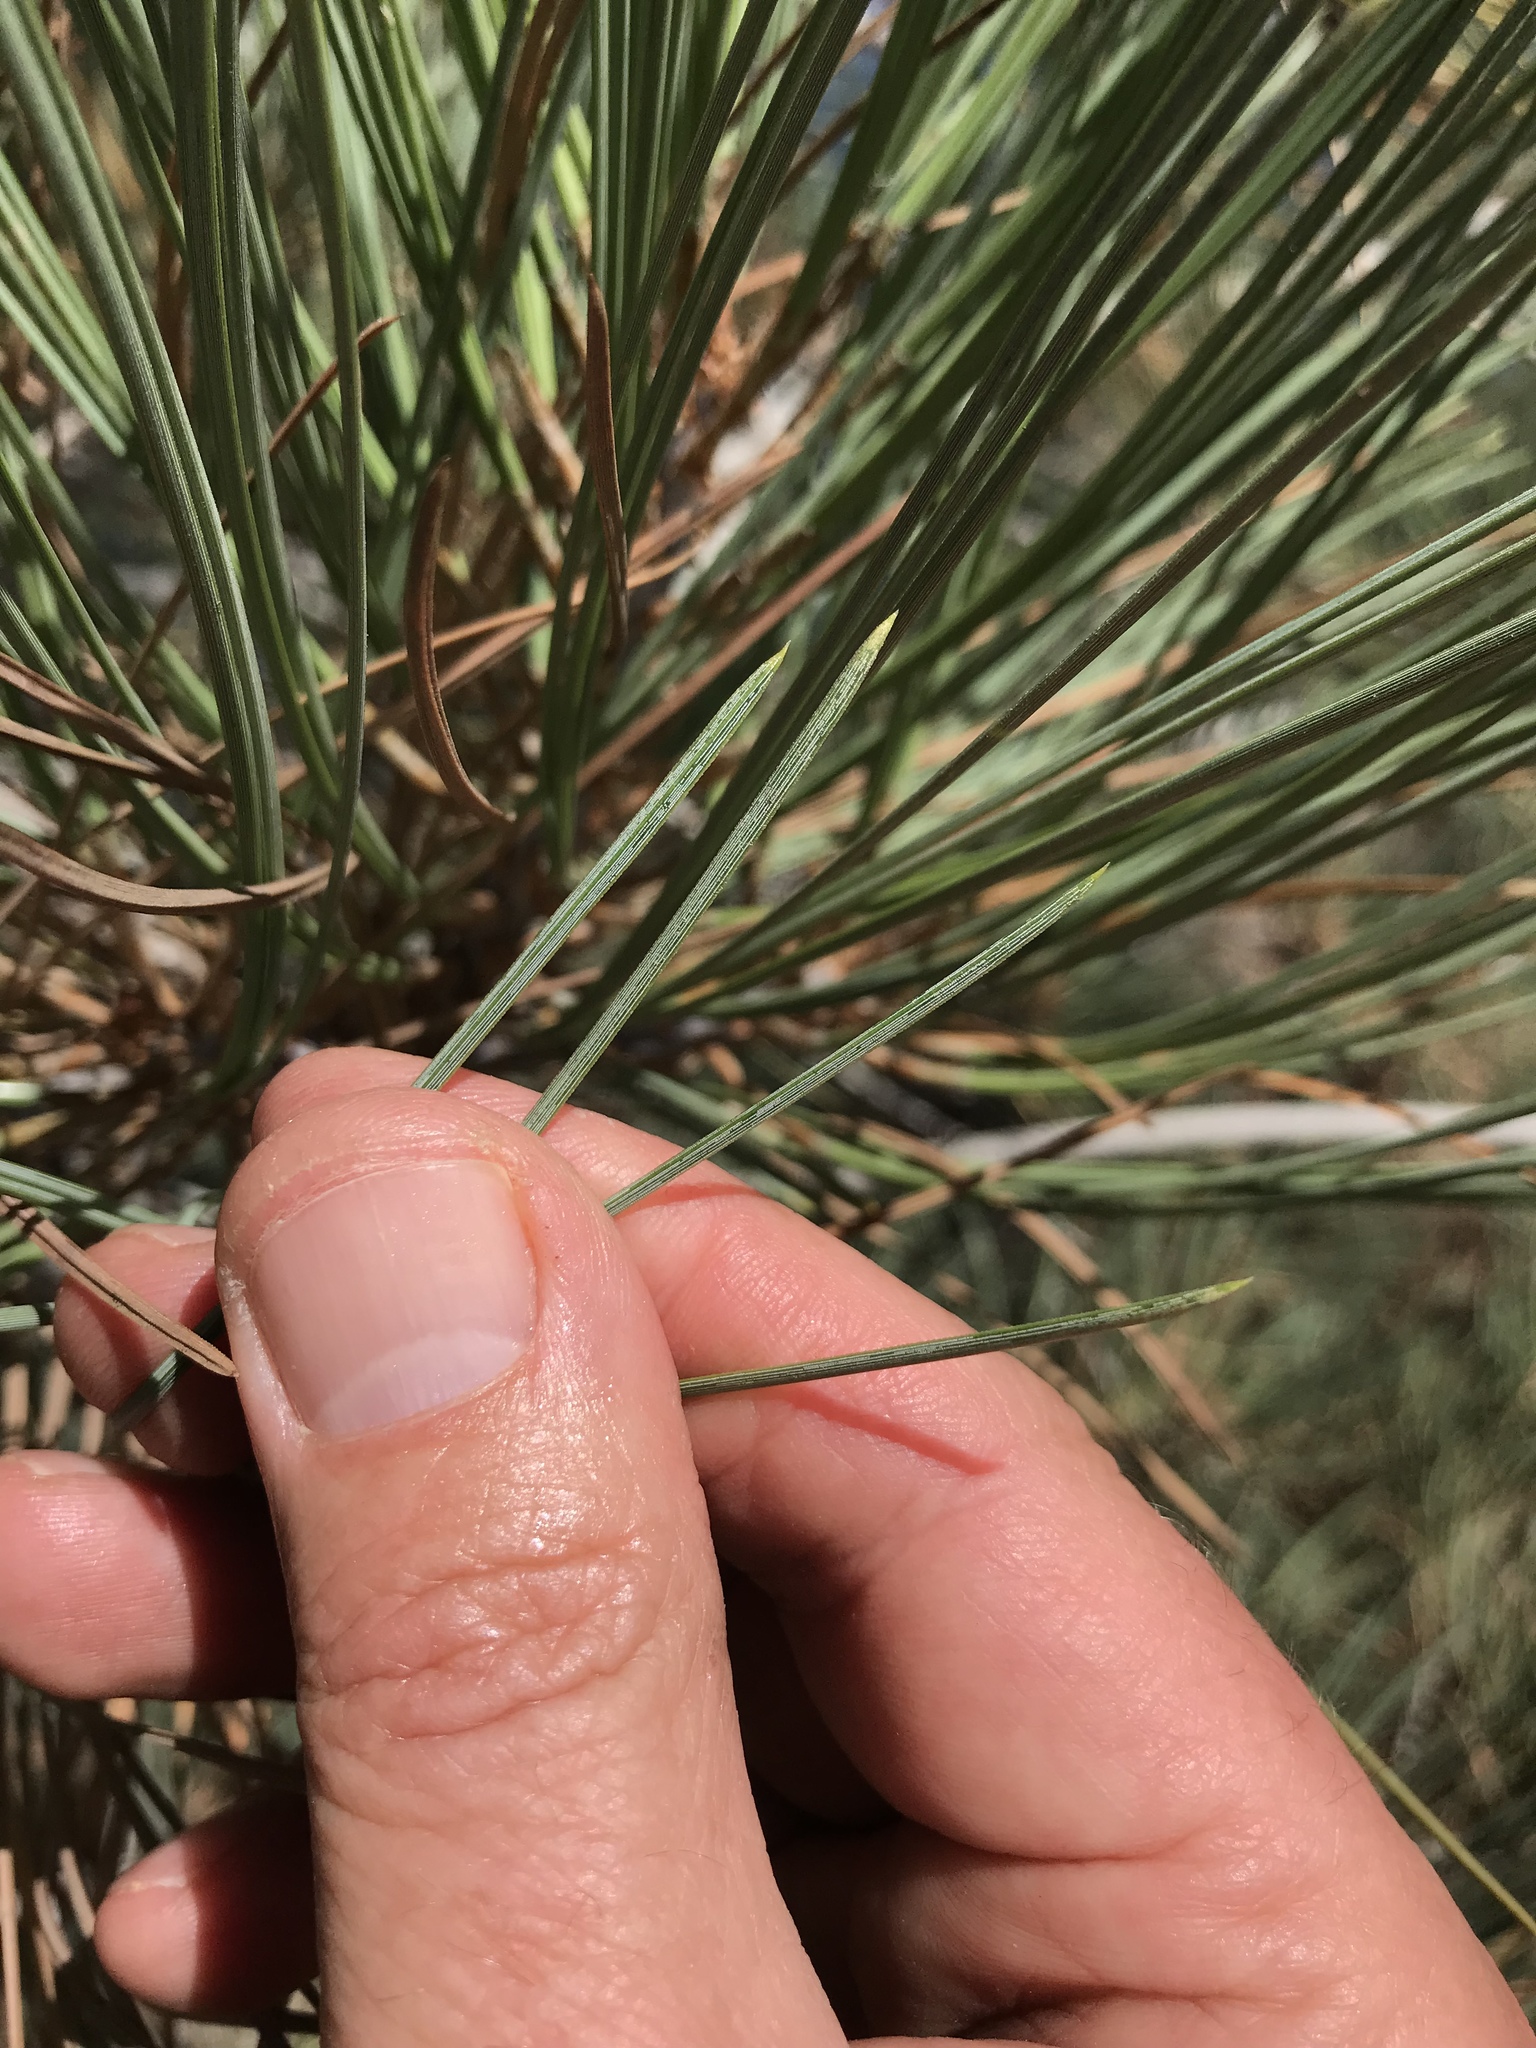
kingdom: Plantae
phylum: Tracheophyta
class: Pinopsida
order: Pinales
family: Pinaceae
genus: Pinus
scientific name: Pinus torreyana
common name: Torrey pine
